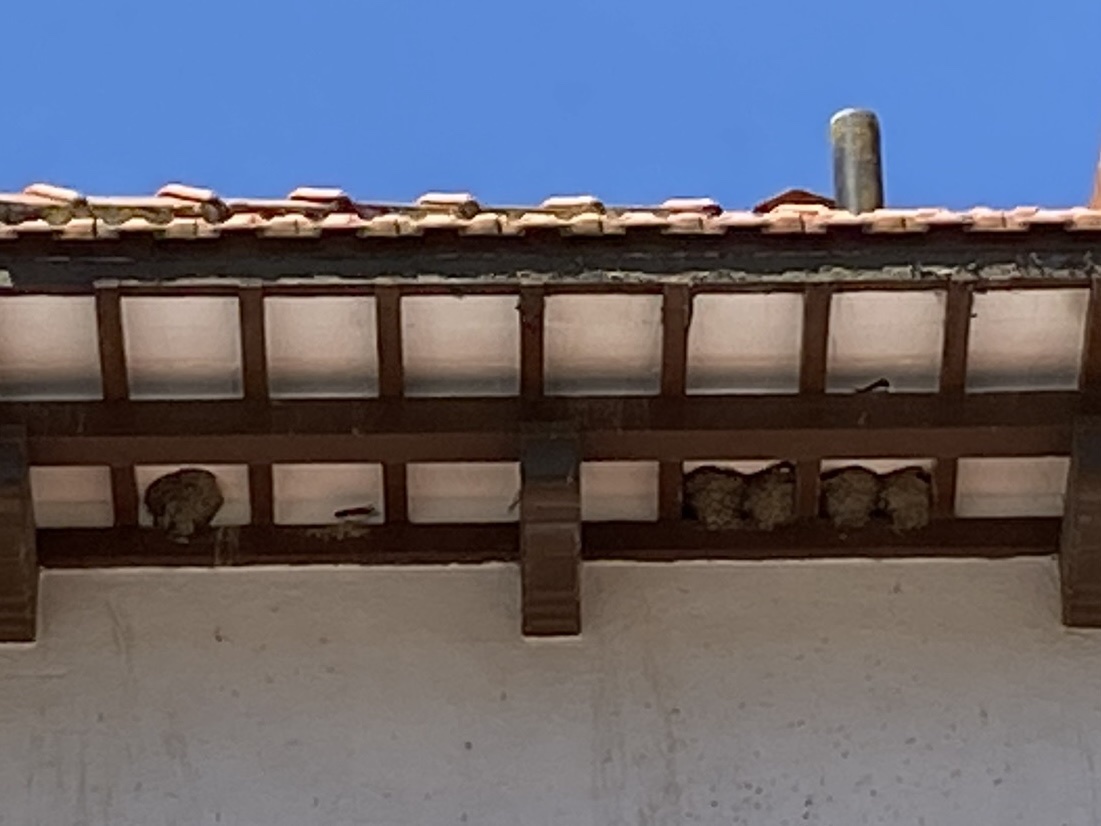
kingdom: Animalia
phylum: Chordata
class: Aves
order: Passeriformes
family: Hirundinidae
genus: Delichon
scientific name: Delichon urbicum
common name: Common house martin
